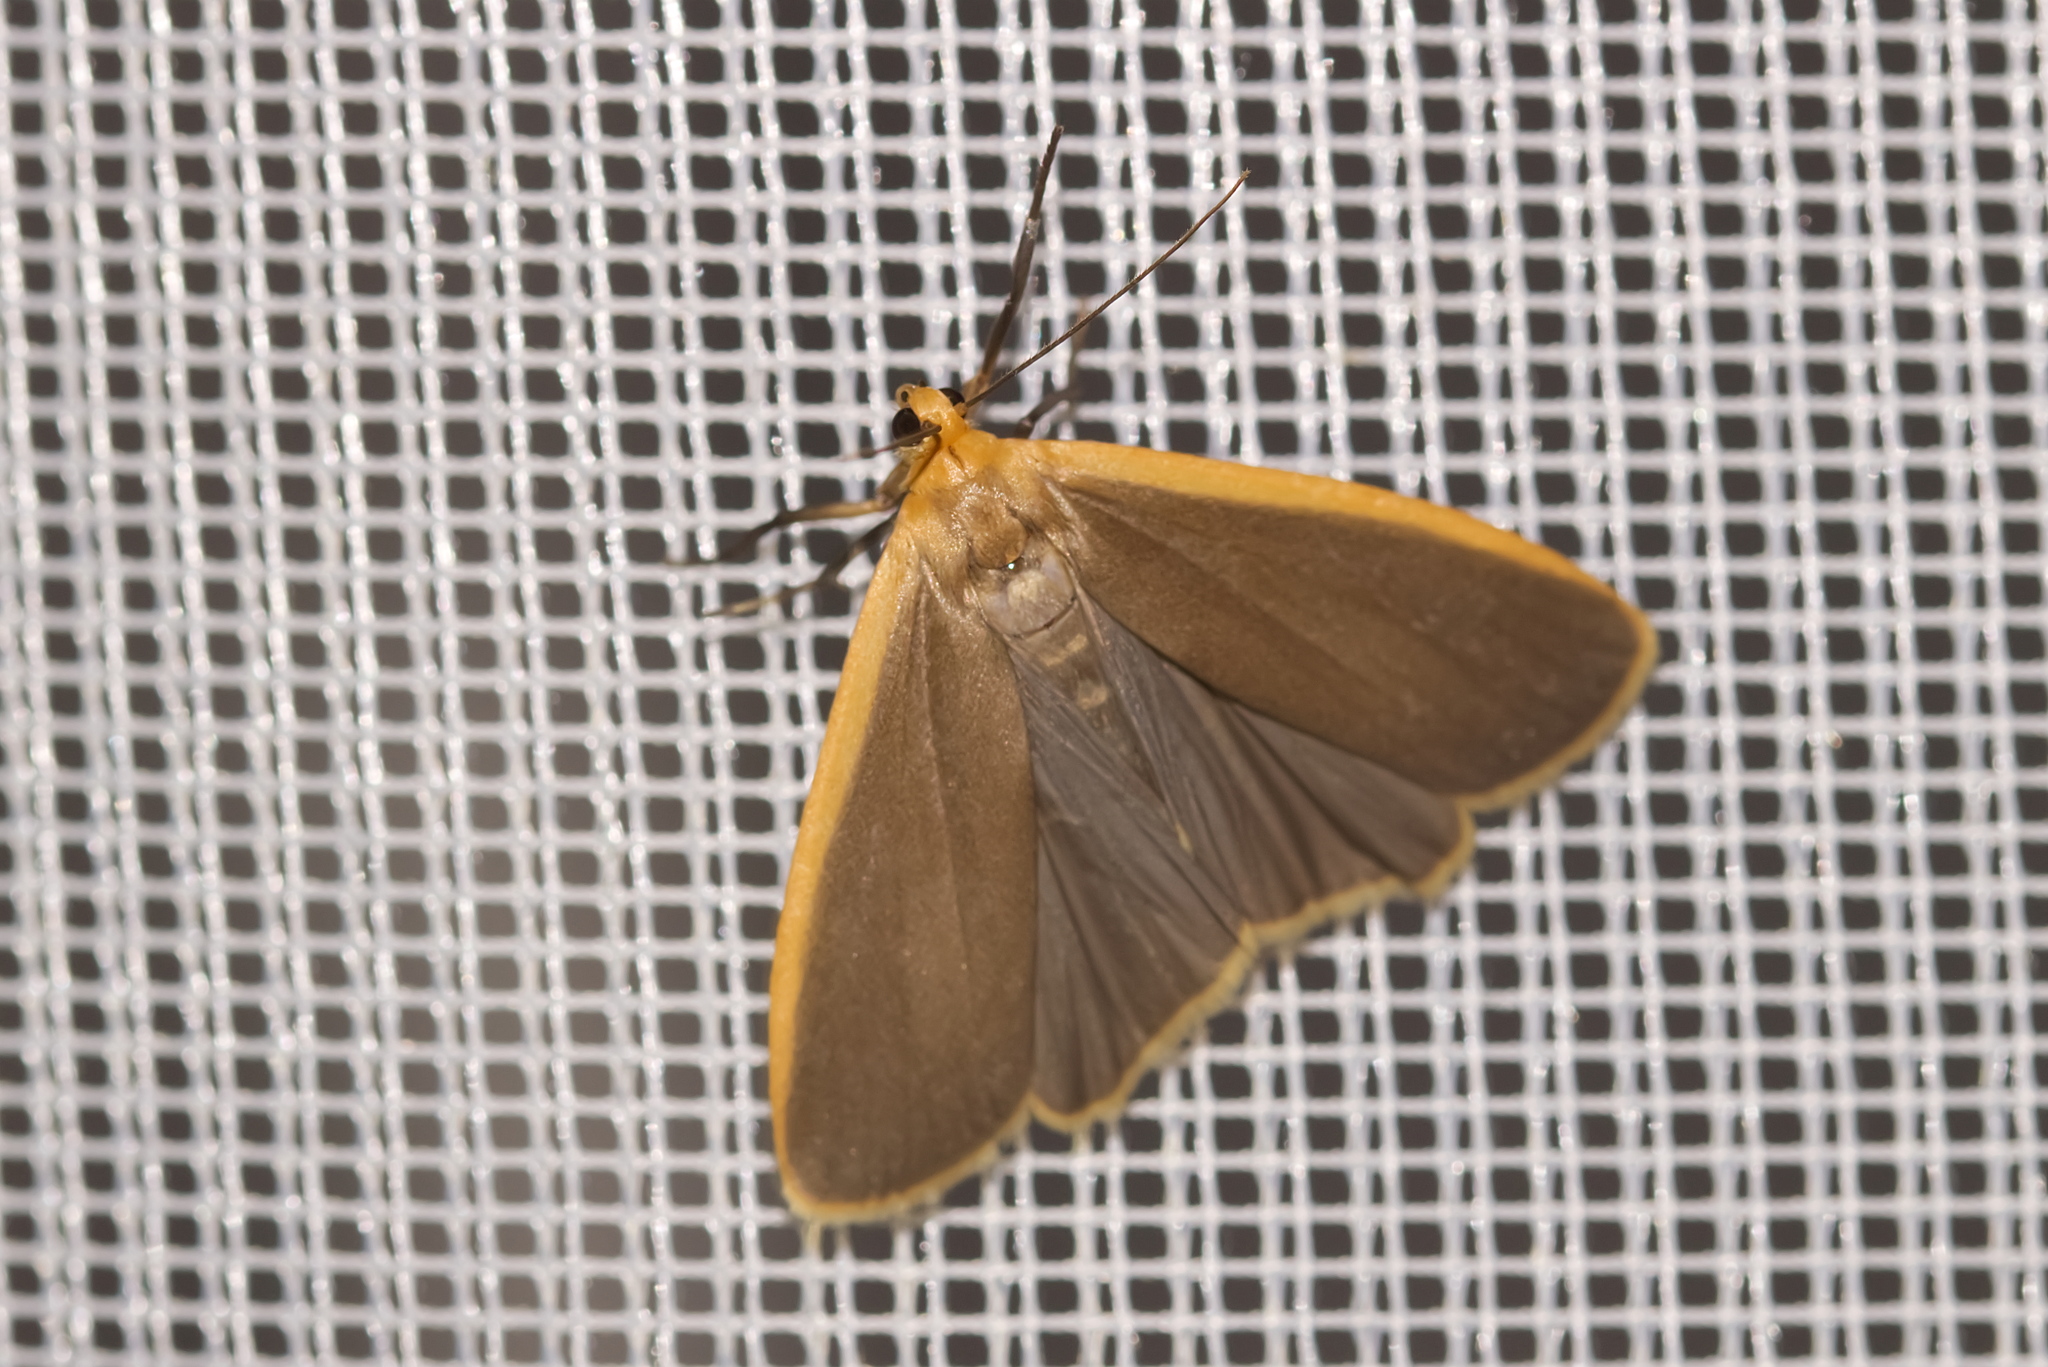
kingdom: Animalia
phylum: Arthropoda
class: Insecta
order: Lepidoptera
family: Erebidae
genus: Nyea
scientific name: Nyea lurideola
